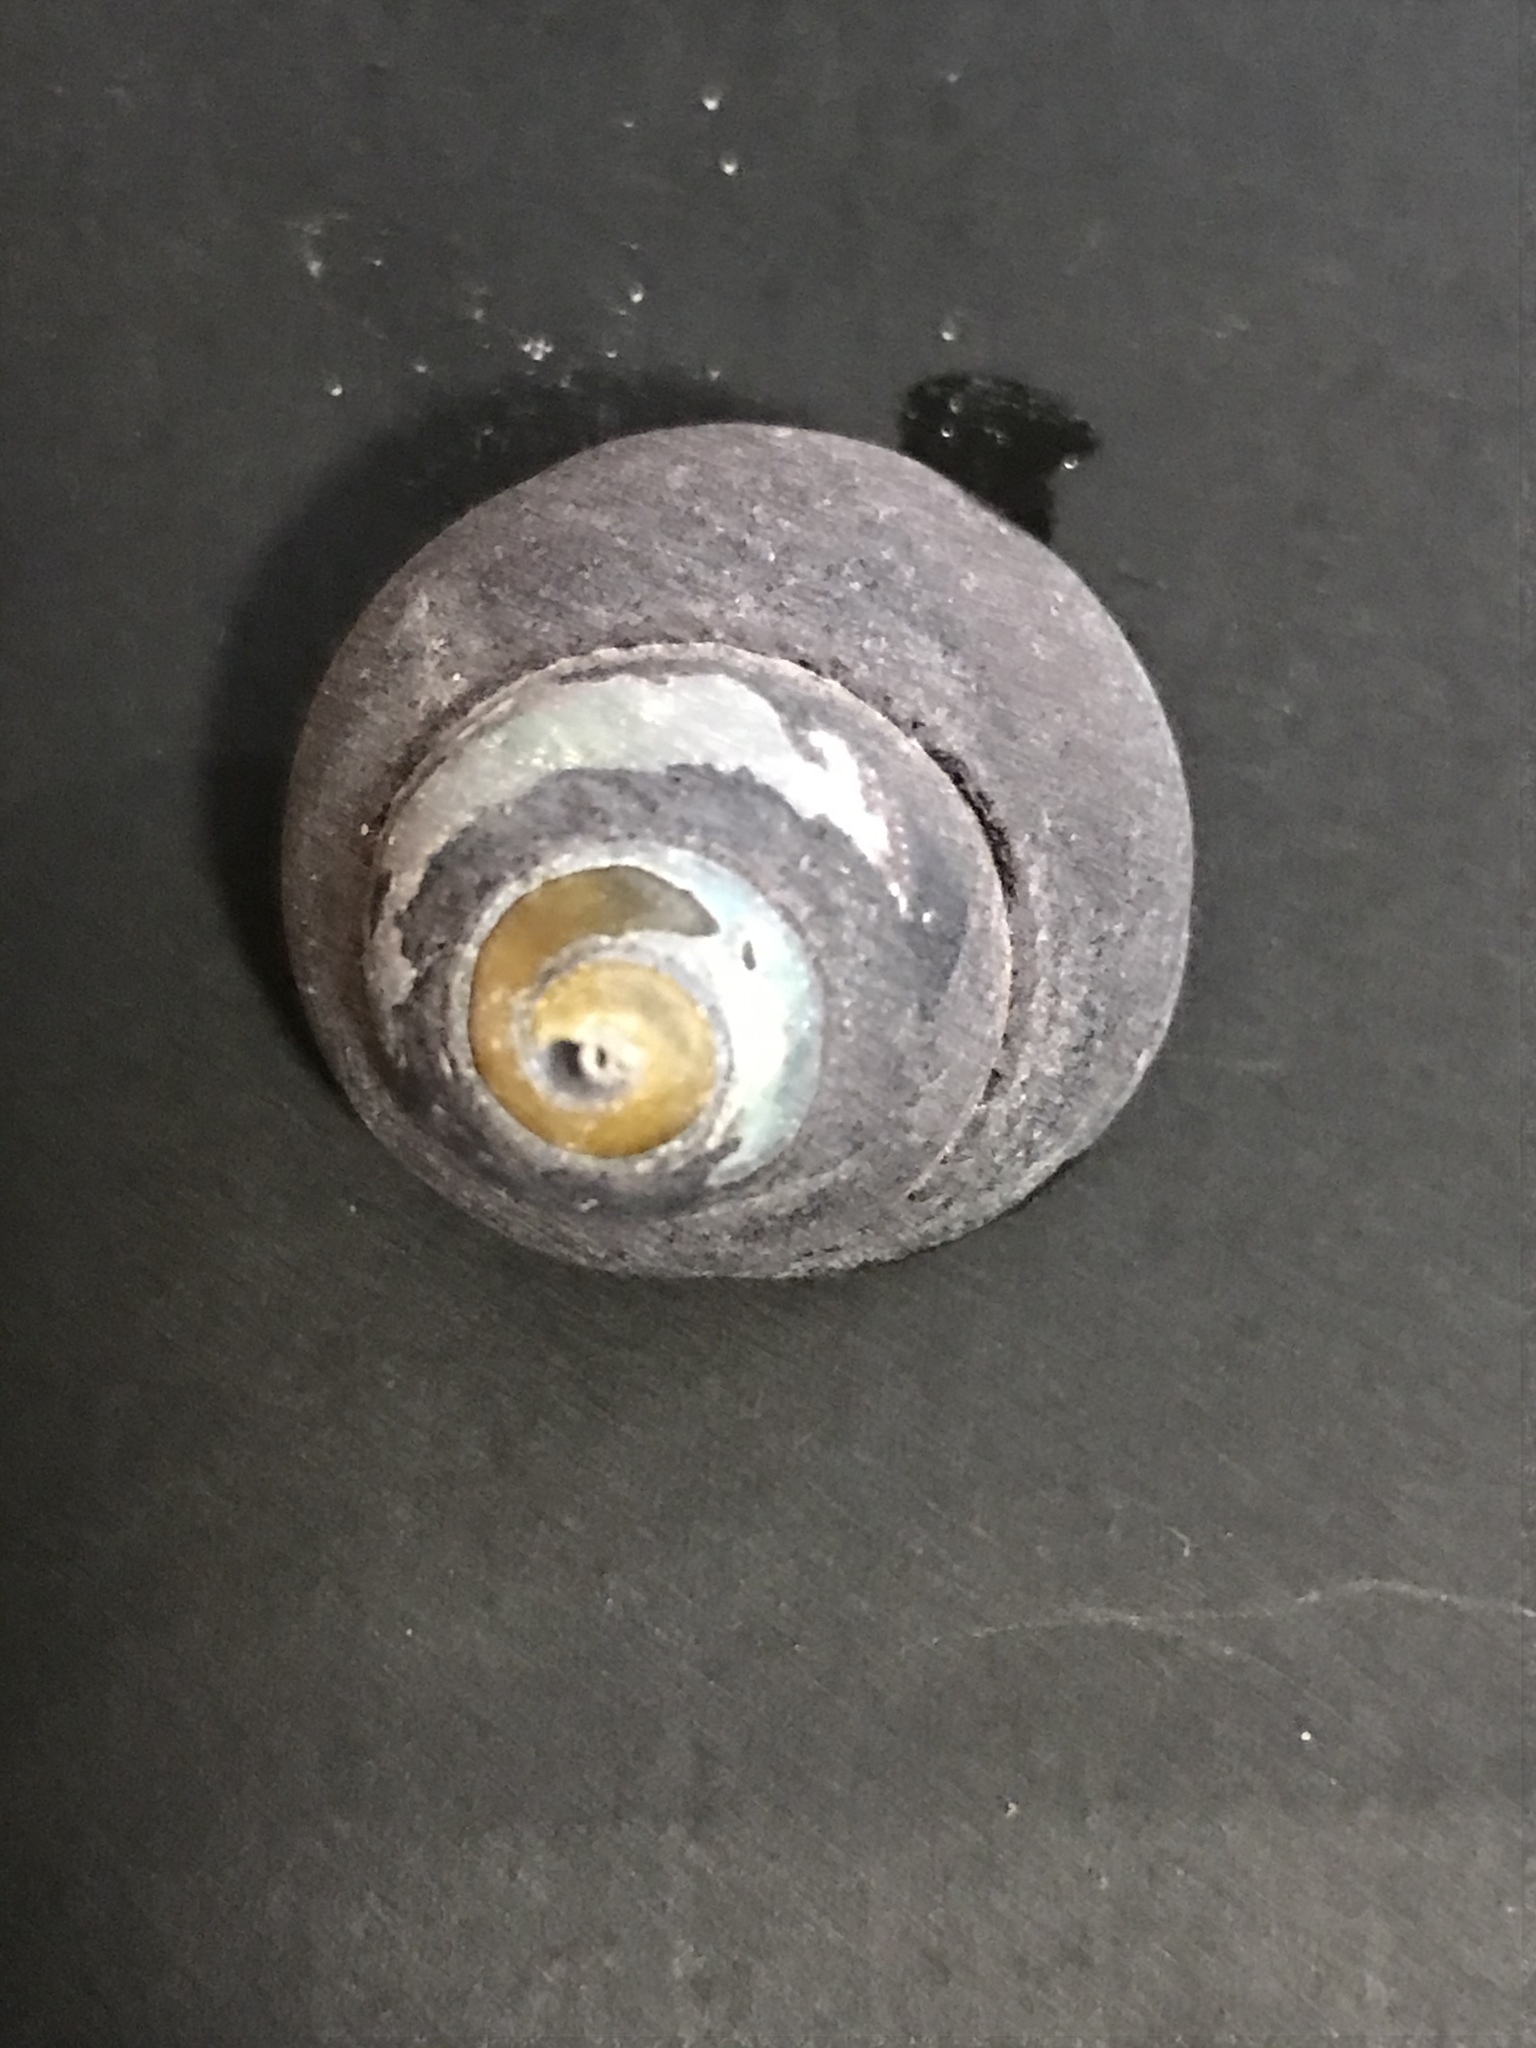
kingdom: Animalia
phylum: Mollusca
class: Gastropoda
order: Trochida
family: Tegulidae
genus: Tegula
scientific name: Tegula funebralis
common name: Black tegula
